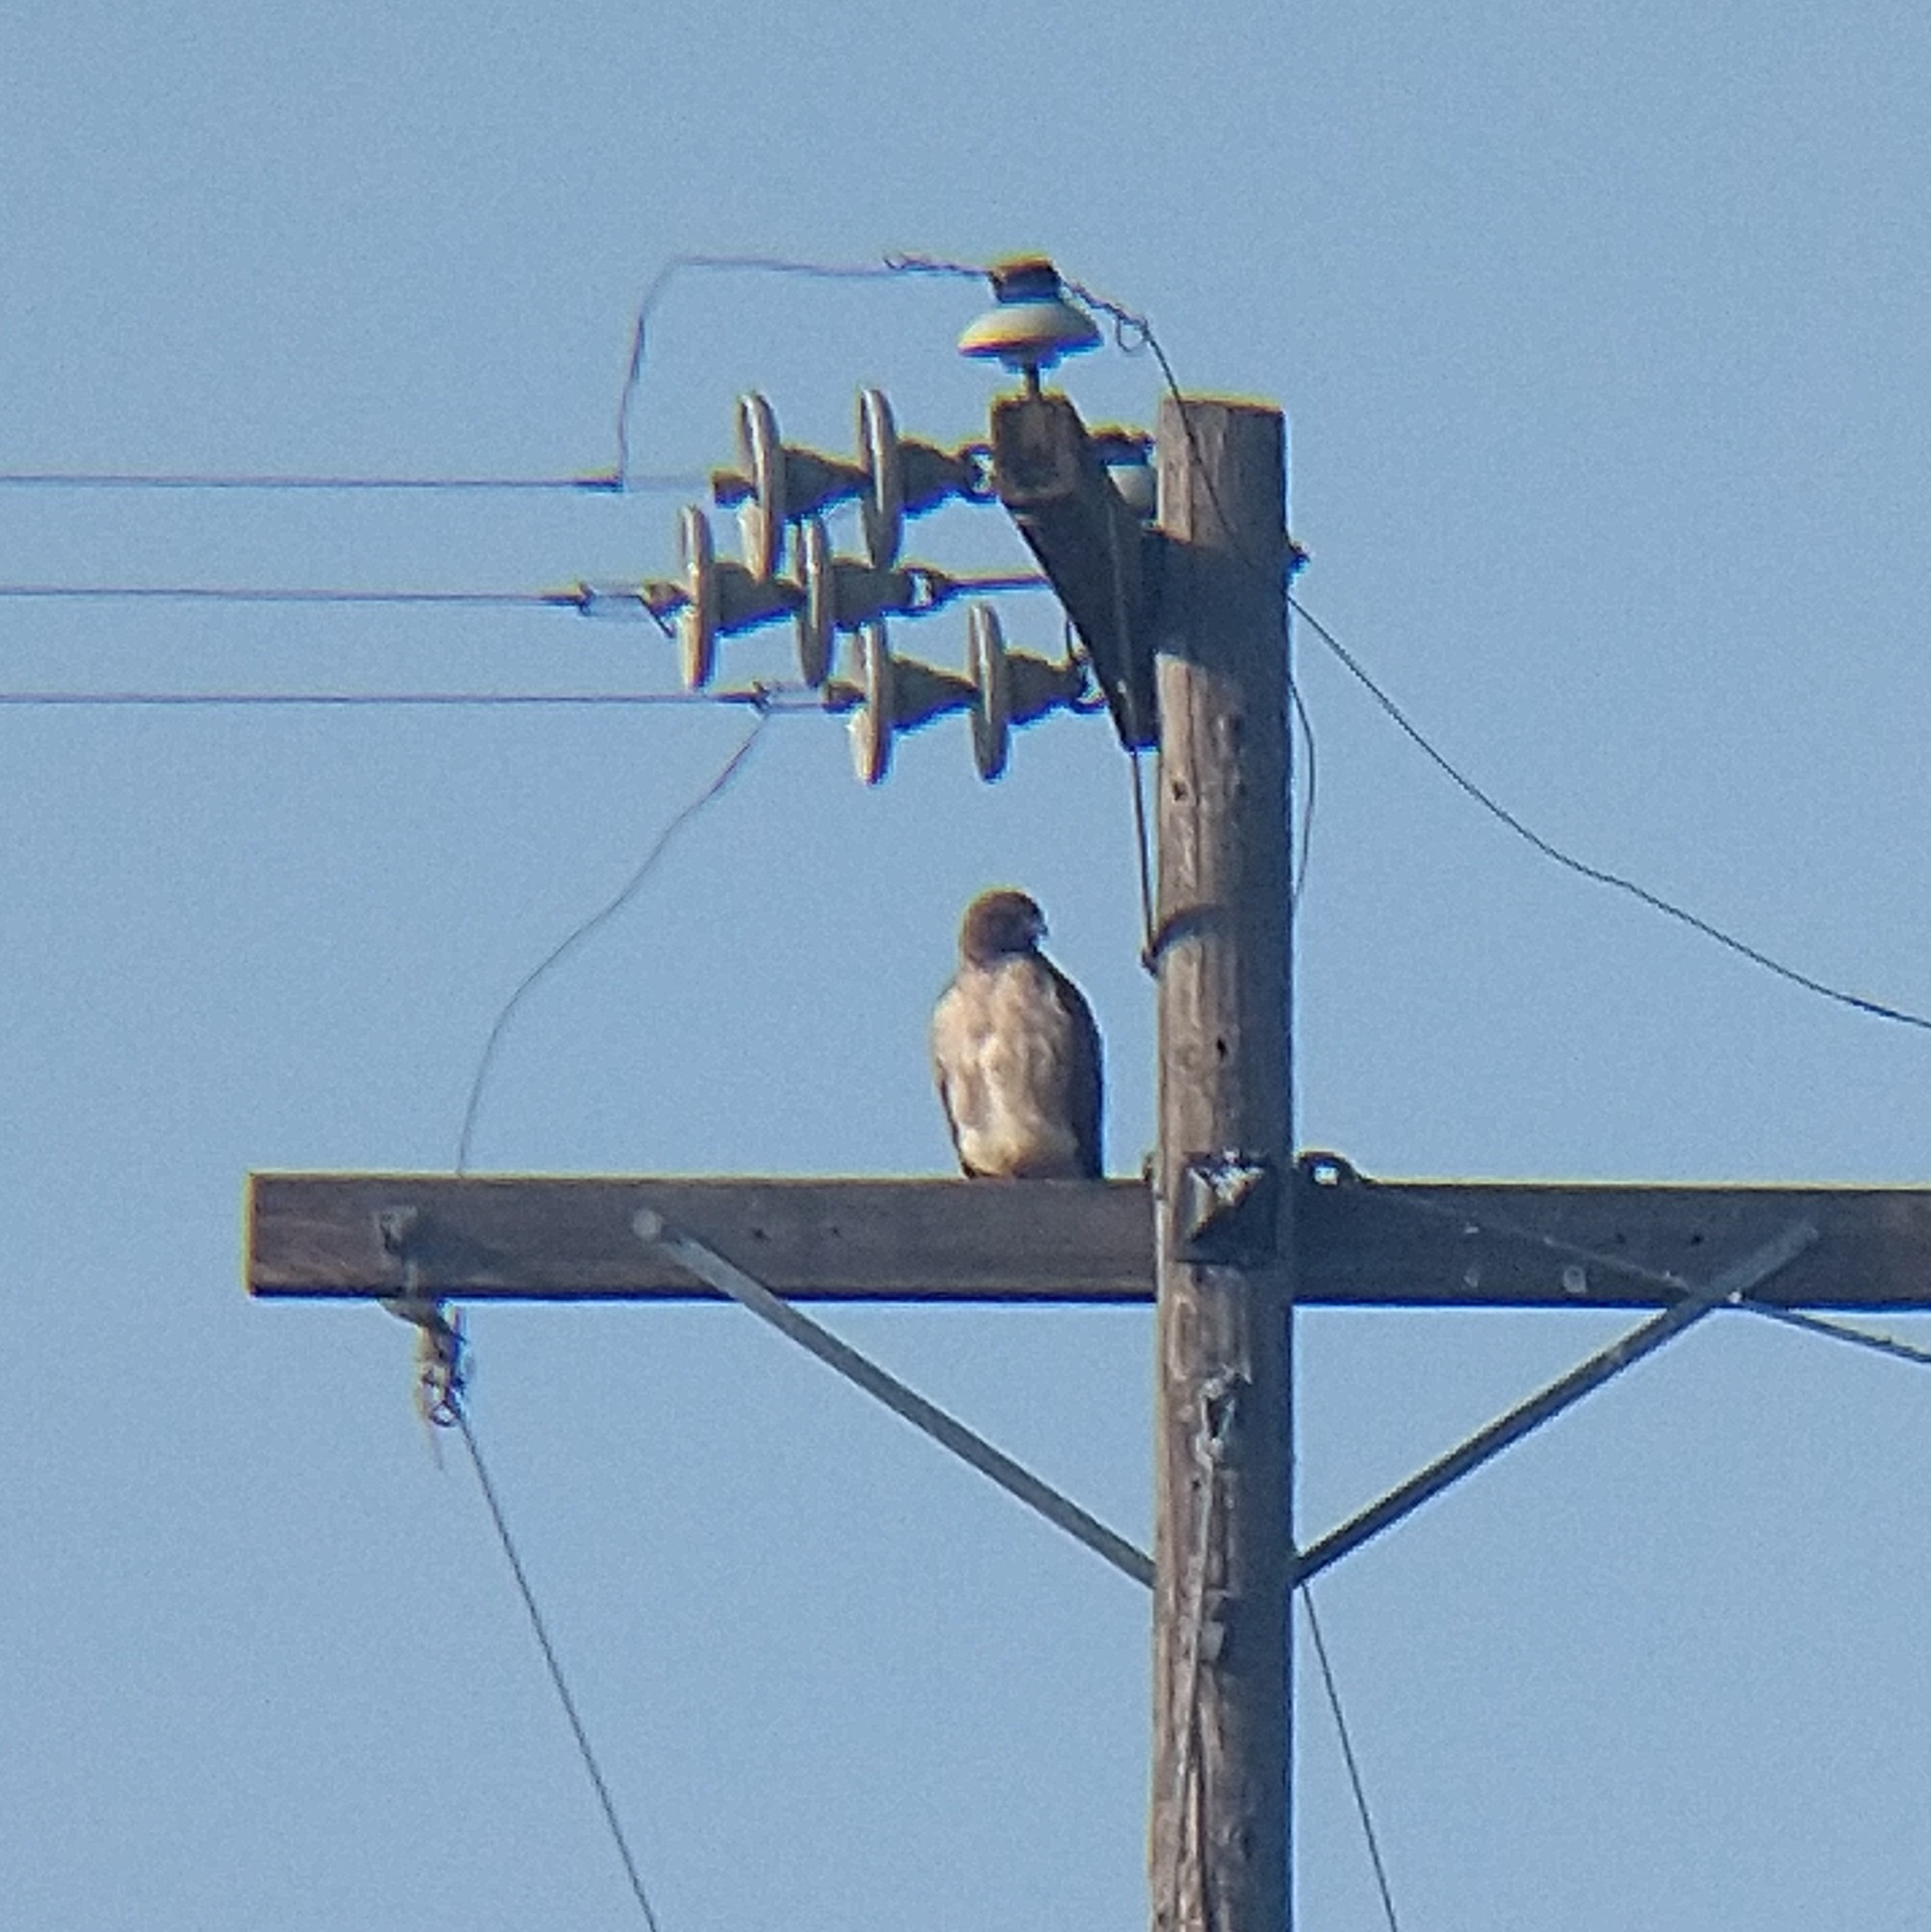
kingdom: Animalia
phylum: Chordata
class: Aves
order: Accipitriformes
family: Accipitridae
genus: Buteo
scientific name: Buteo jamaicensis
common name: Red-tailed hawk
